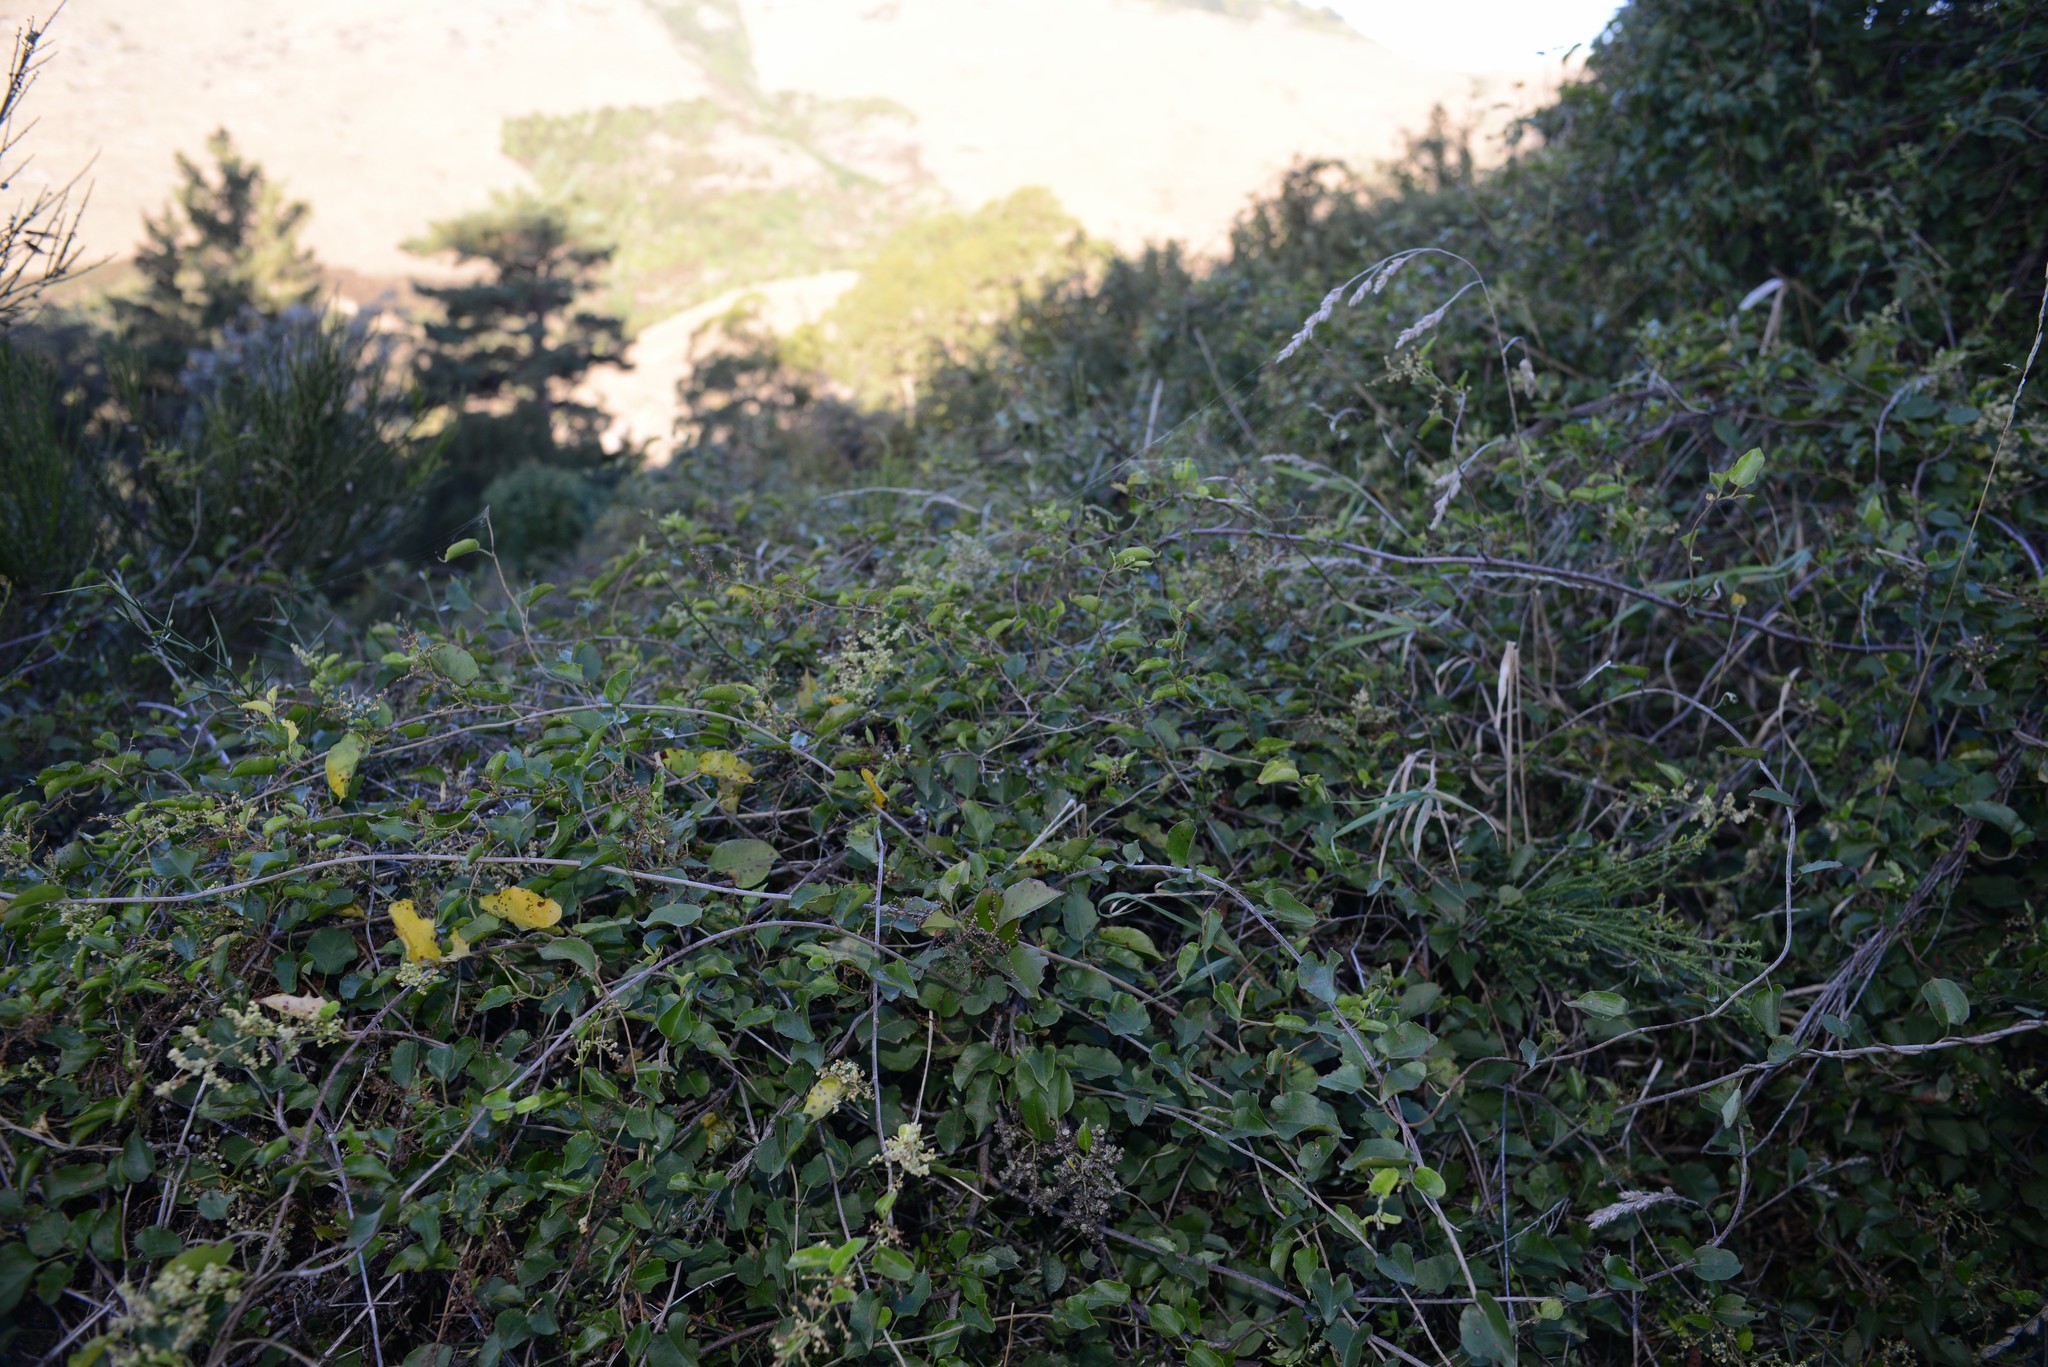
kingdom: Plantae
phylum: Tracheophyta
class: Magnoliopsida
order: Caryophyllales
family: Polygonaceae
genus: Muehlenbeckia
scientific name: Muehlenbeckia australis
